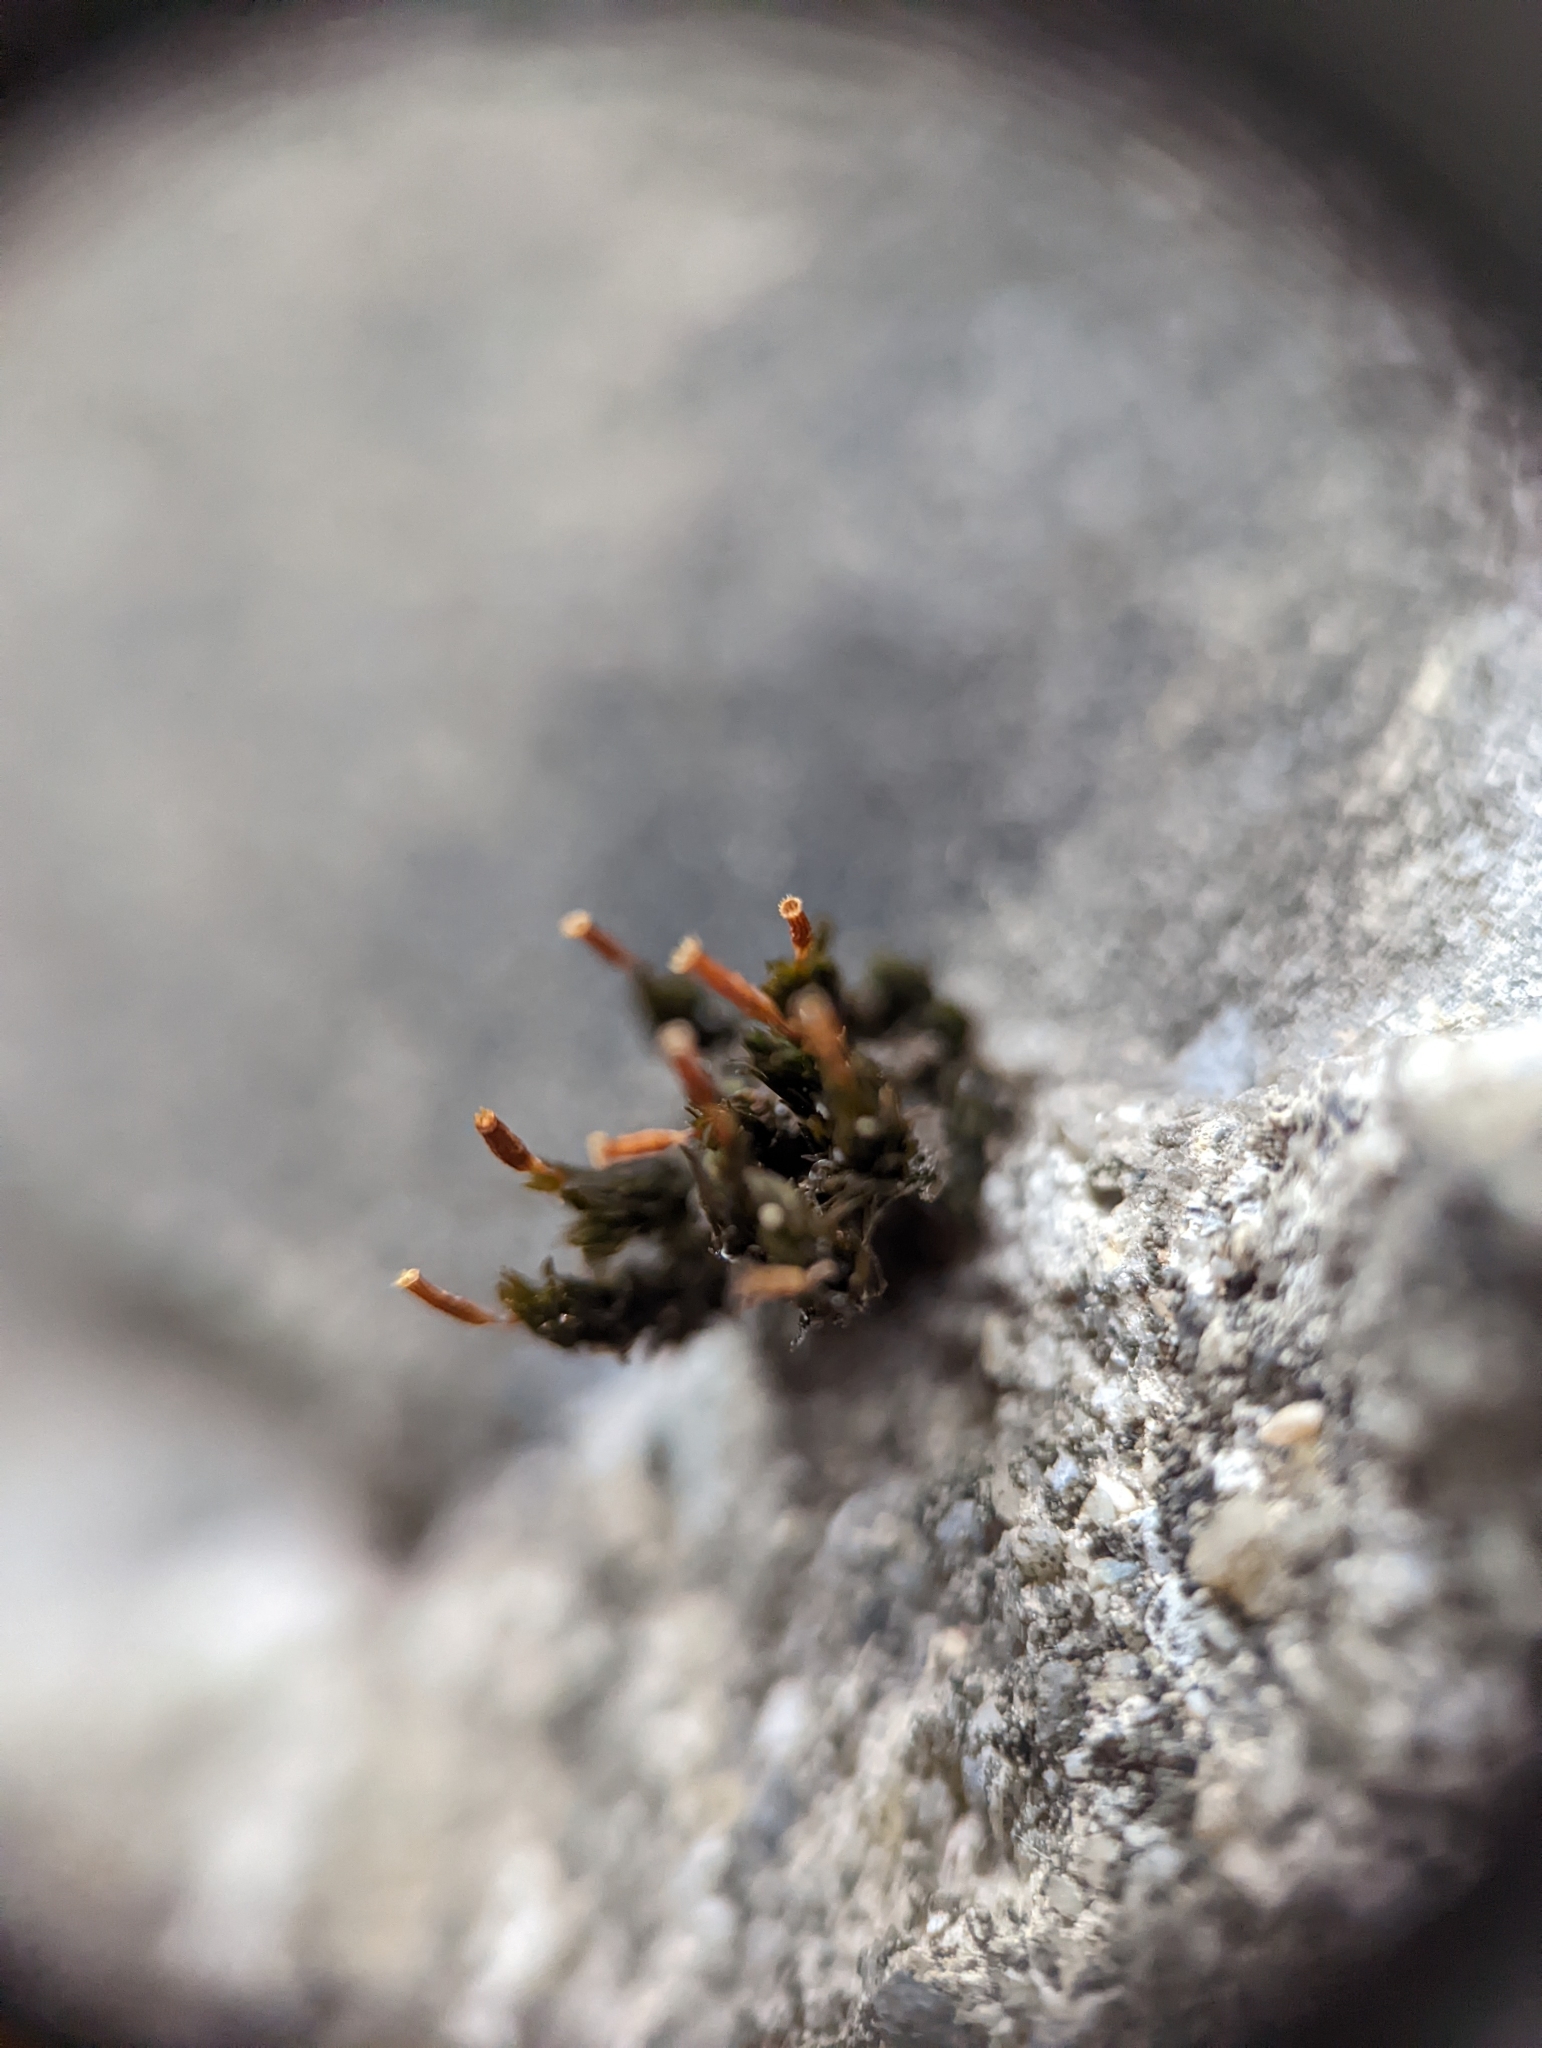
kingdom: Plantae
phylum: Bryophyta
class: Bryopsida
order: Orthotrichales
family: Orthotrichaceae
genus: Orthotrichum
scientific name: Orthotrichum anomalum
